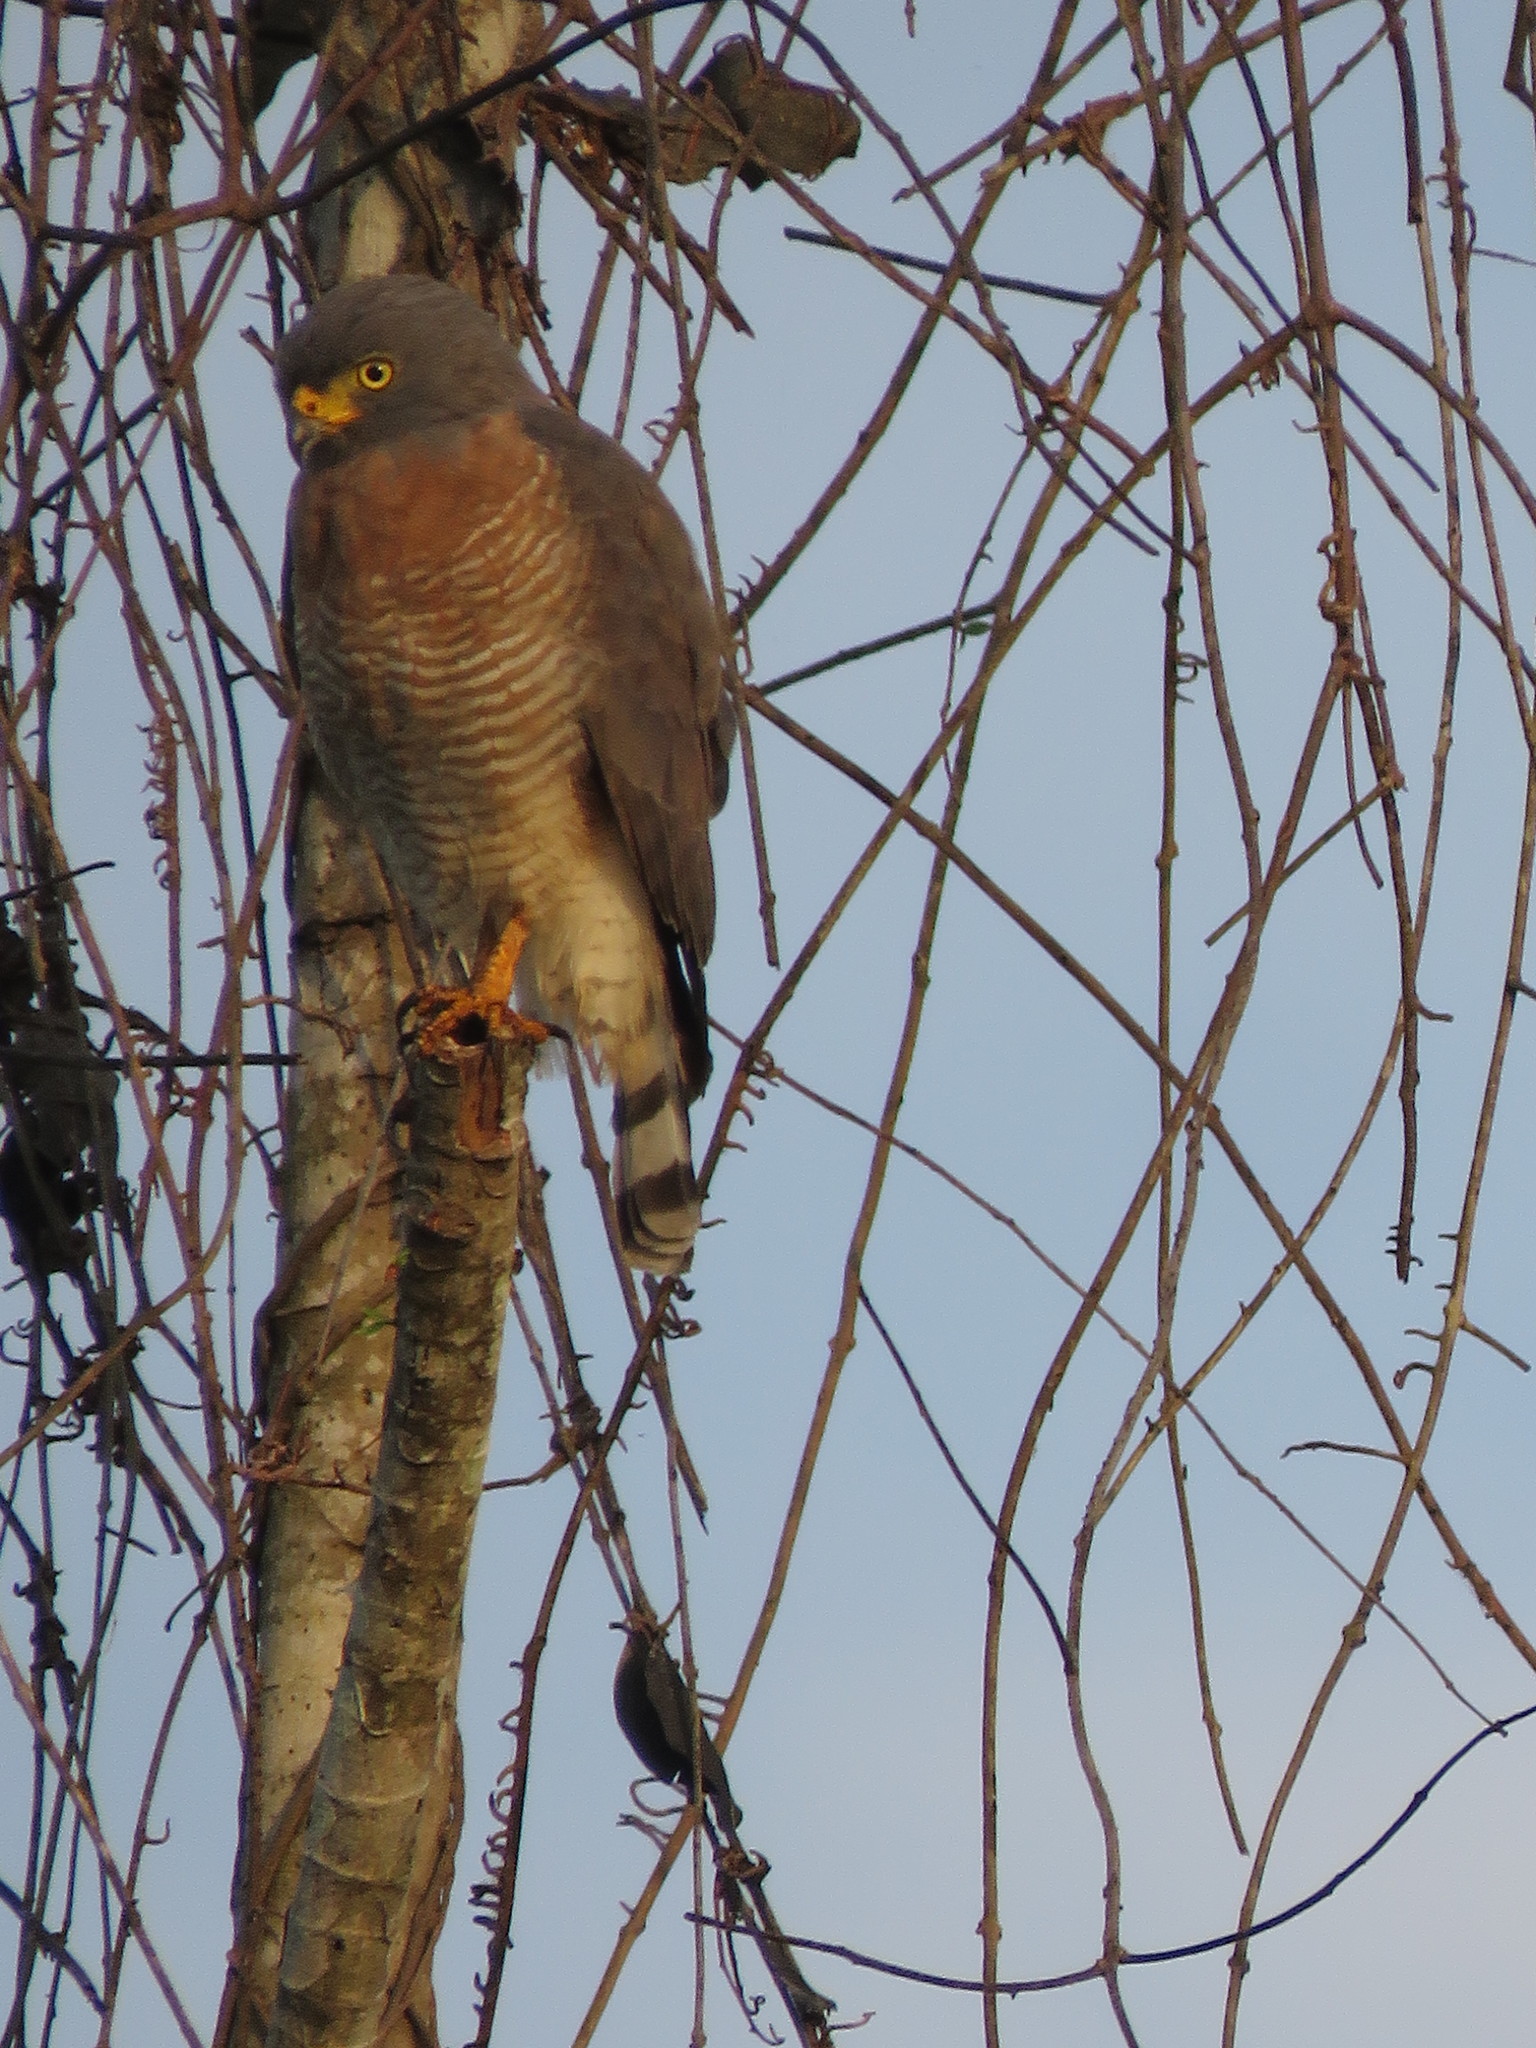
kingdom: Animalia
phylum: Chordata
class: Aves
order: Accipitriformes
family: Accipitridae
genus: Rupornis
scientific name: Rupornis magnirostris
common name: Roadside hawk
